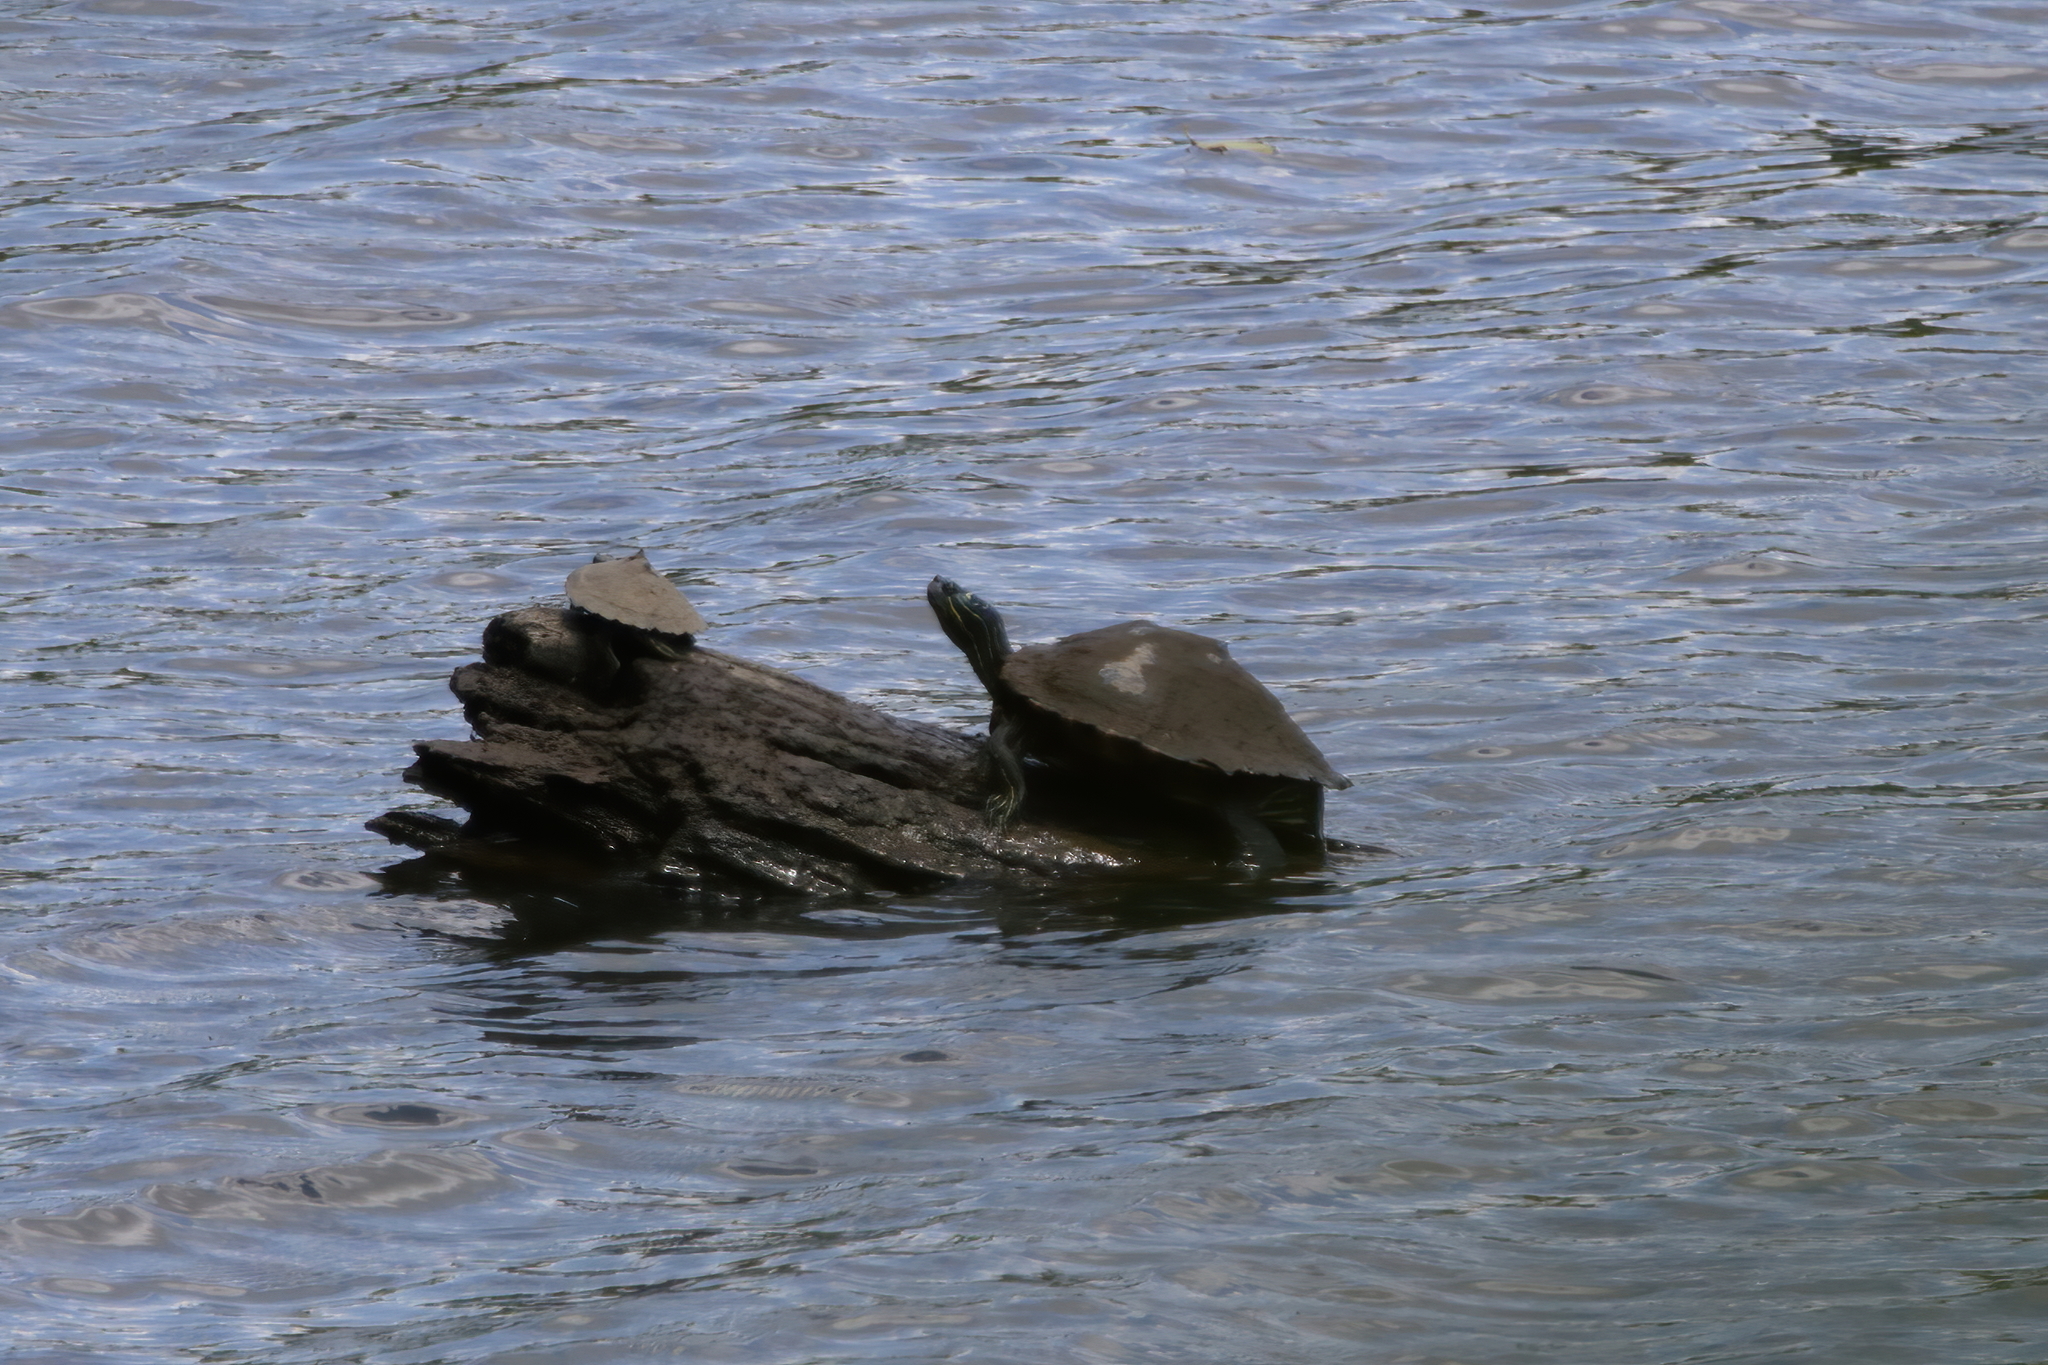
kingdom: Animalia
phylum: Chordata
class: Testudines
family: Emydidae
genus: Graptemys
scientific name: Graptemys oculifera
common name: Ringed map turtle
